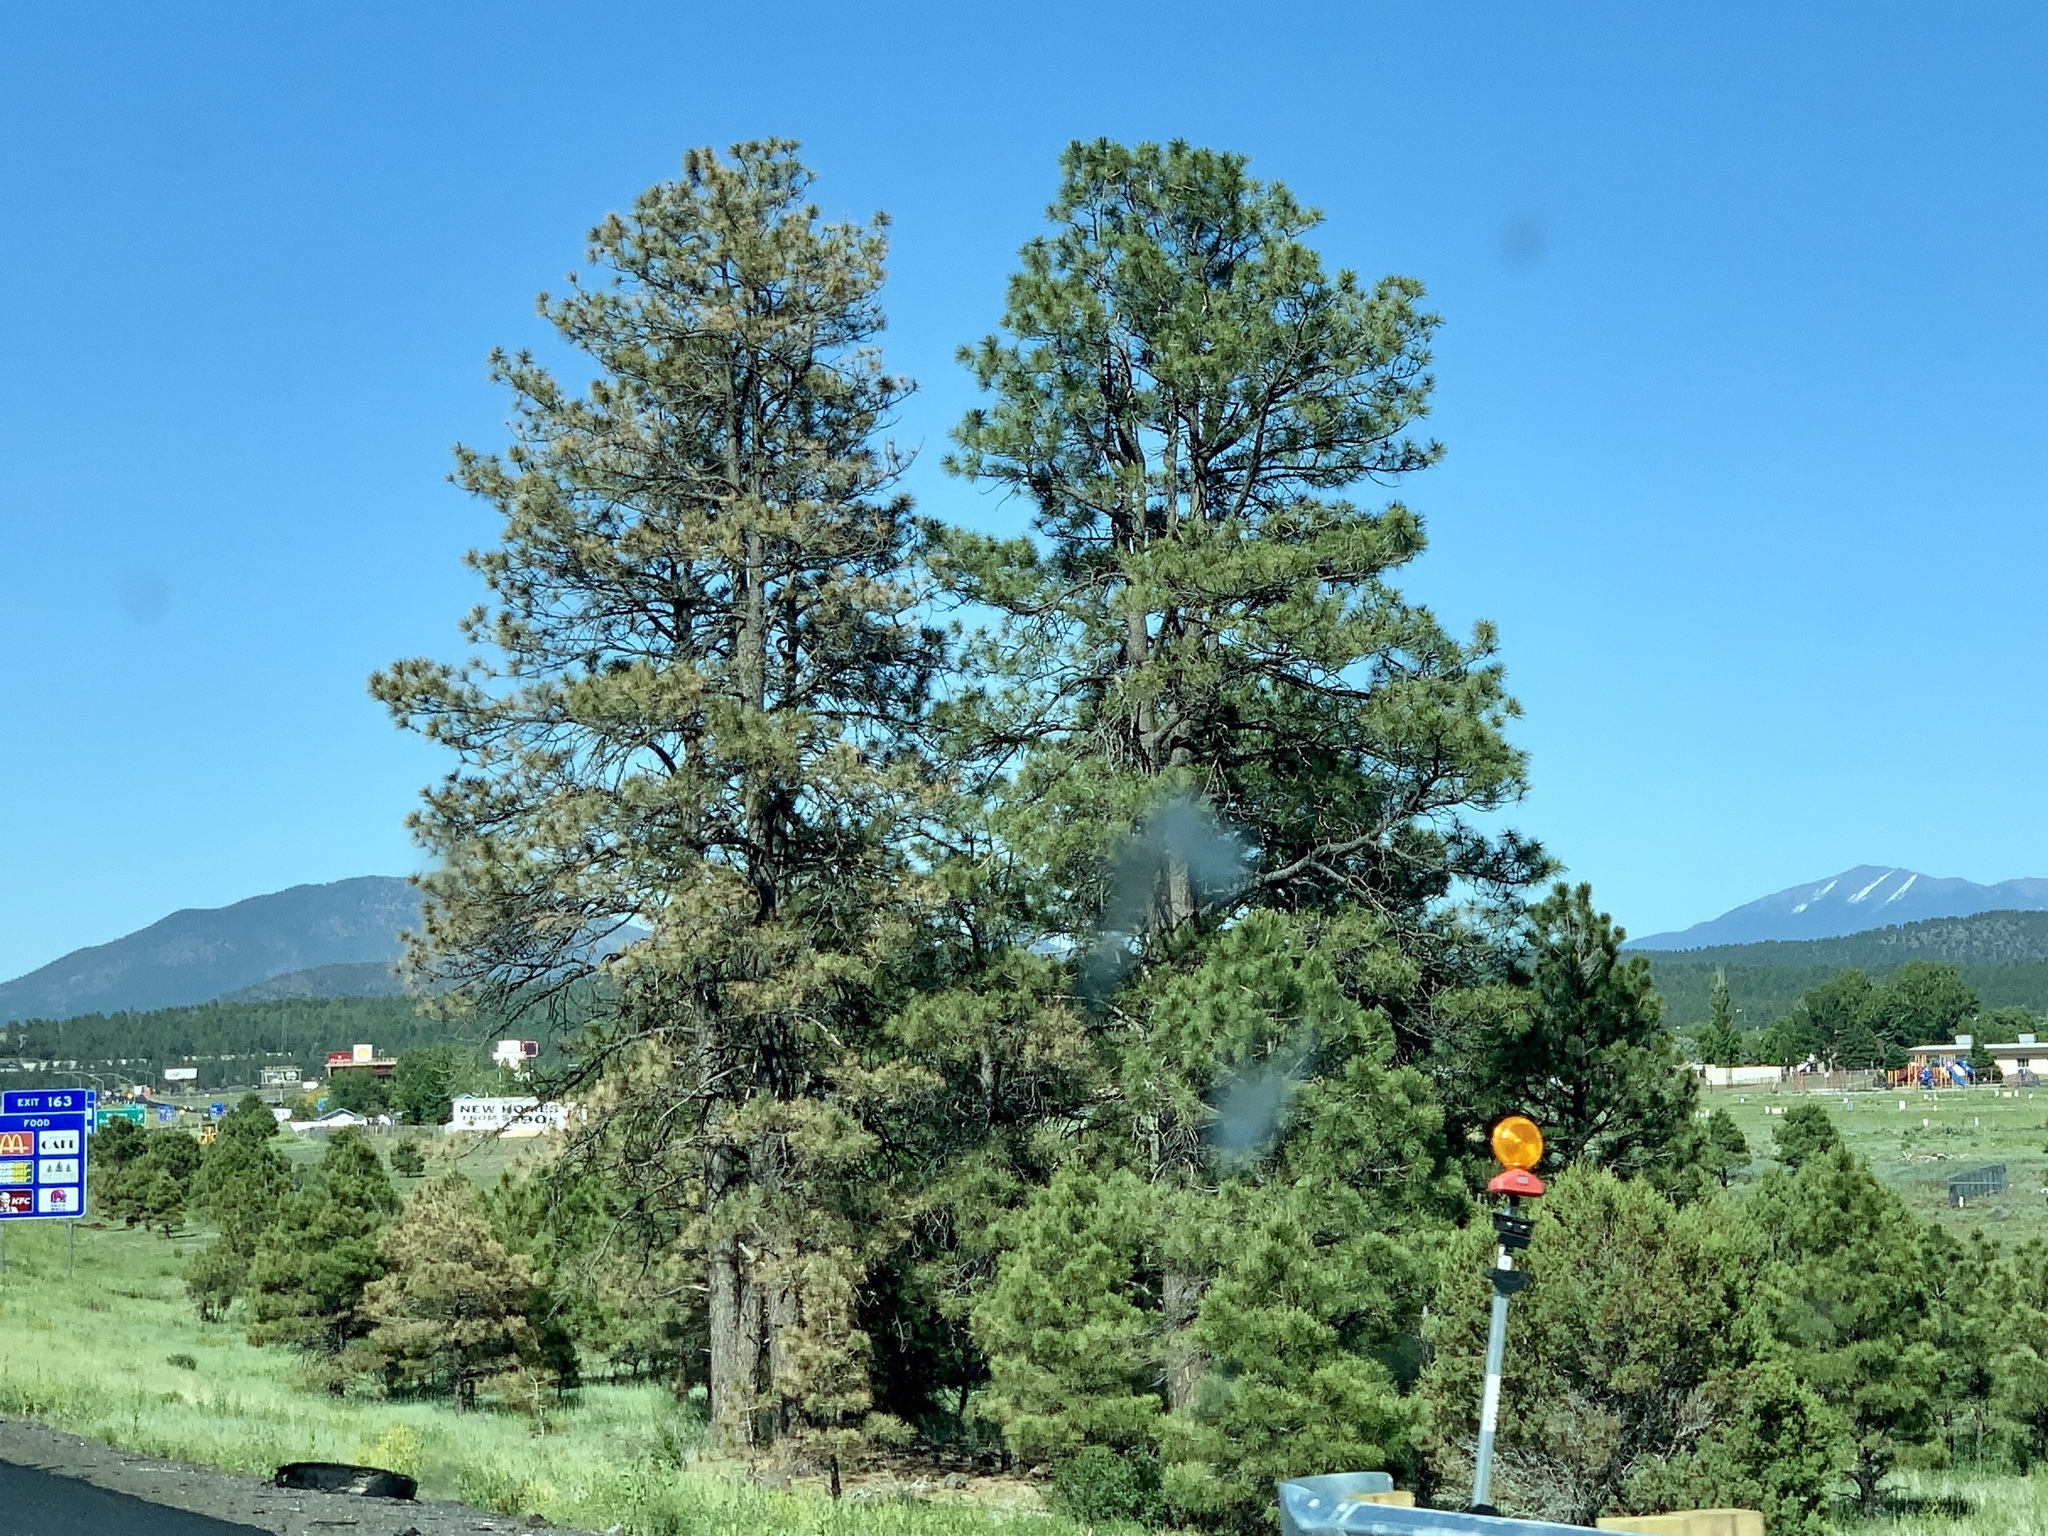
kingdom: Plantae
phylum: Tracheophyta
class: Pinopsida
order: Pinales
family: Pinaceae
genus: Pinus
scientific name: Pinus ponderosa
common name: Western yellow-pine
